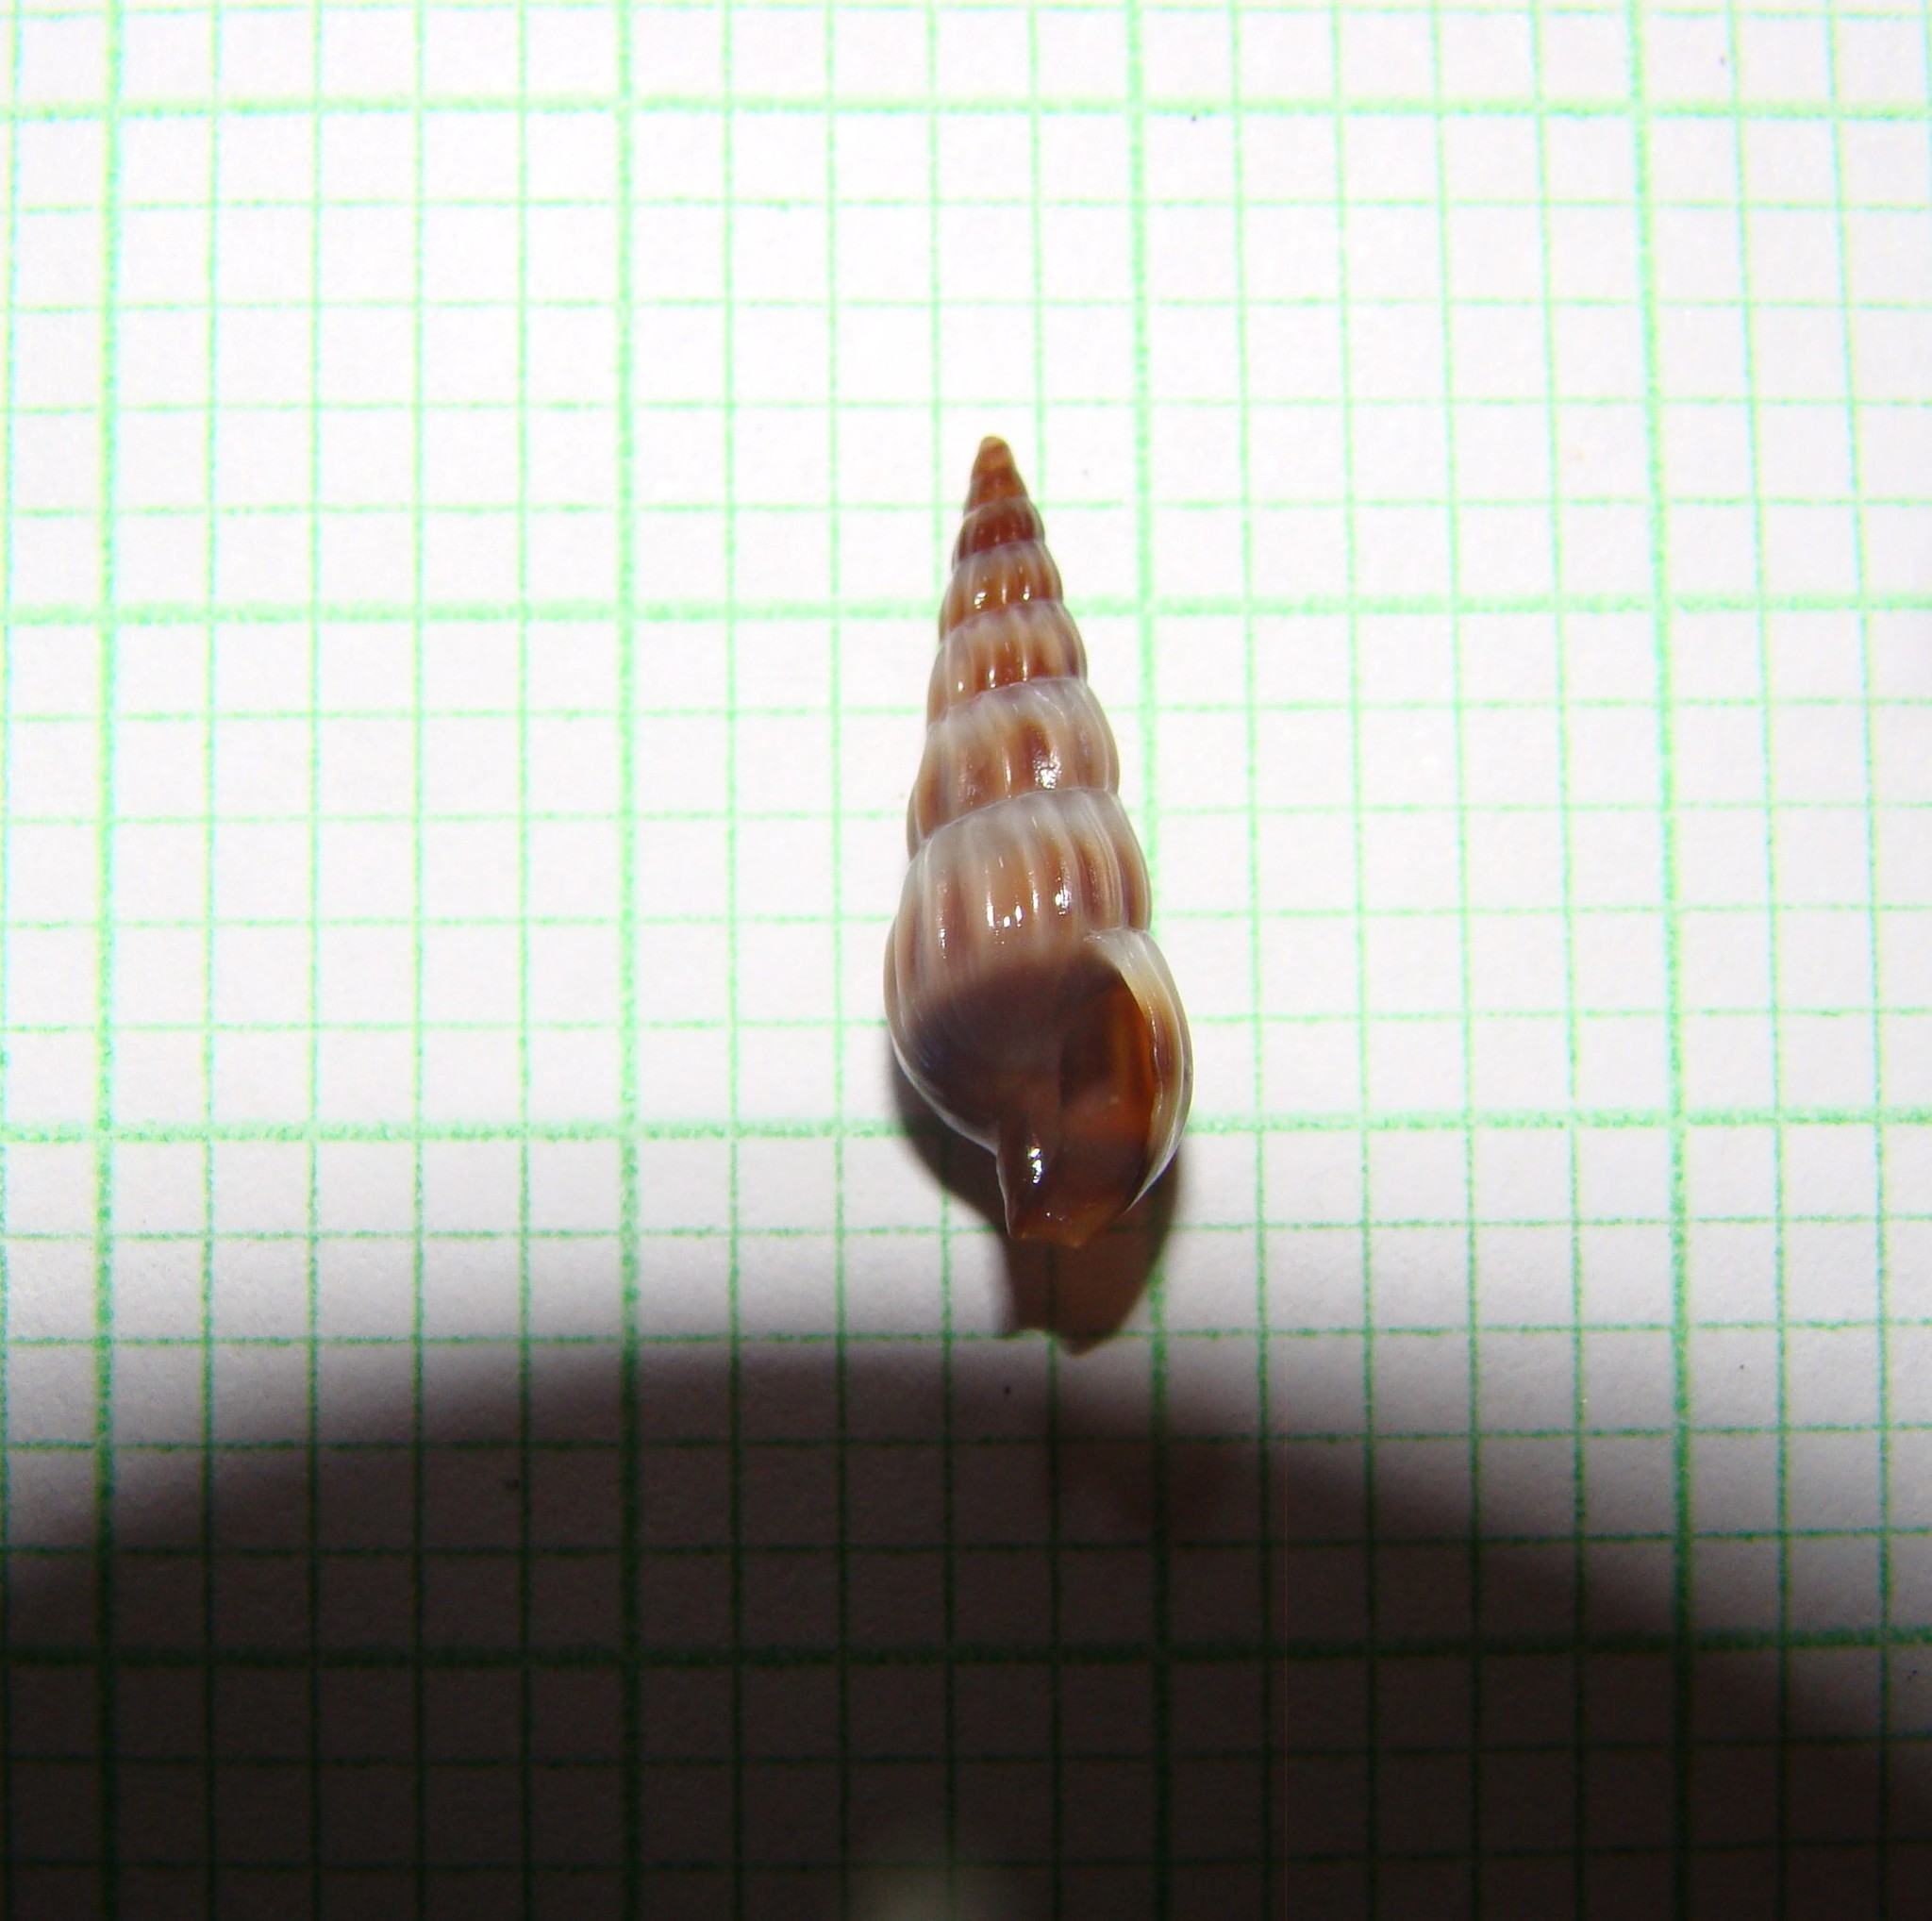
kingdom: Animalia
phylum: Mollusca
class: Gastropoda
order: Neogastropoda
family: Terebridae
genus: Duplicaria
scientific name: Duplicaria tristis
